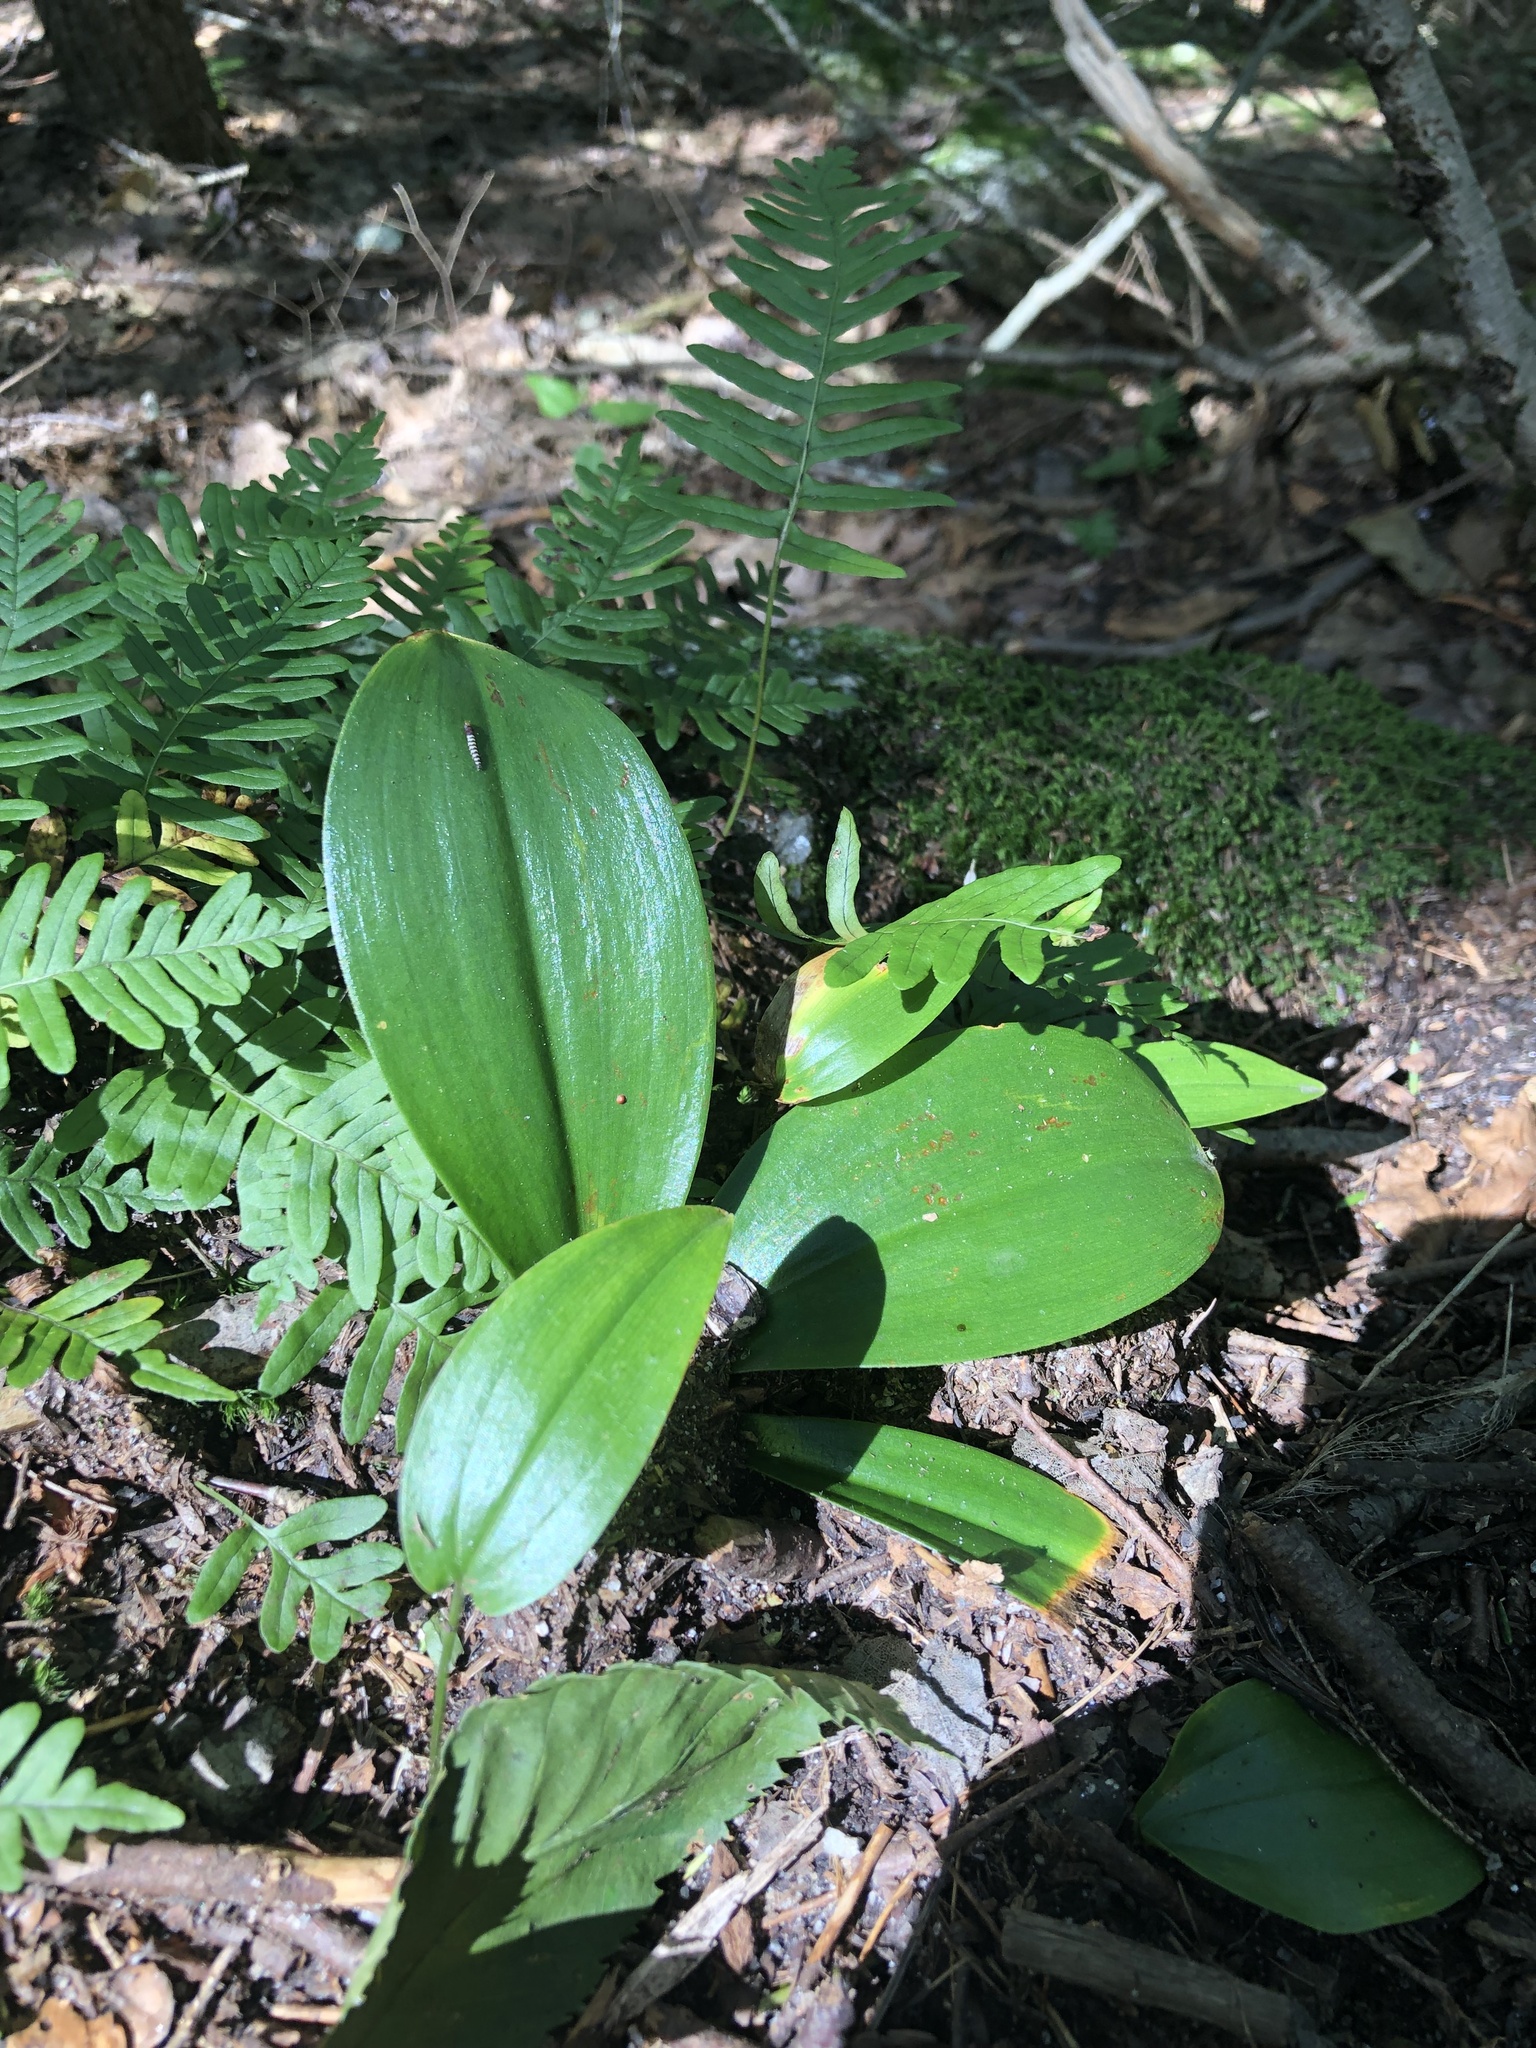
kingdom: Plantae
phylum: Tracheophyta
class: Liliopsida
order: Liliales
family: Liliaceae
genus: Clintonia
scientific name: Clintonia borealis
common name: Yellow clintonia
